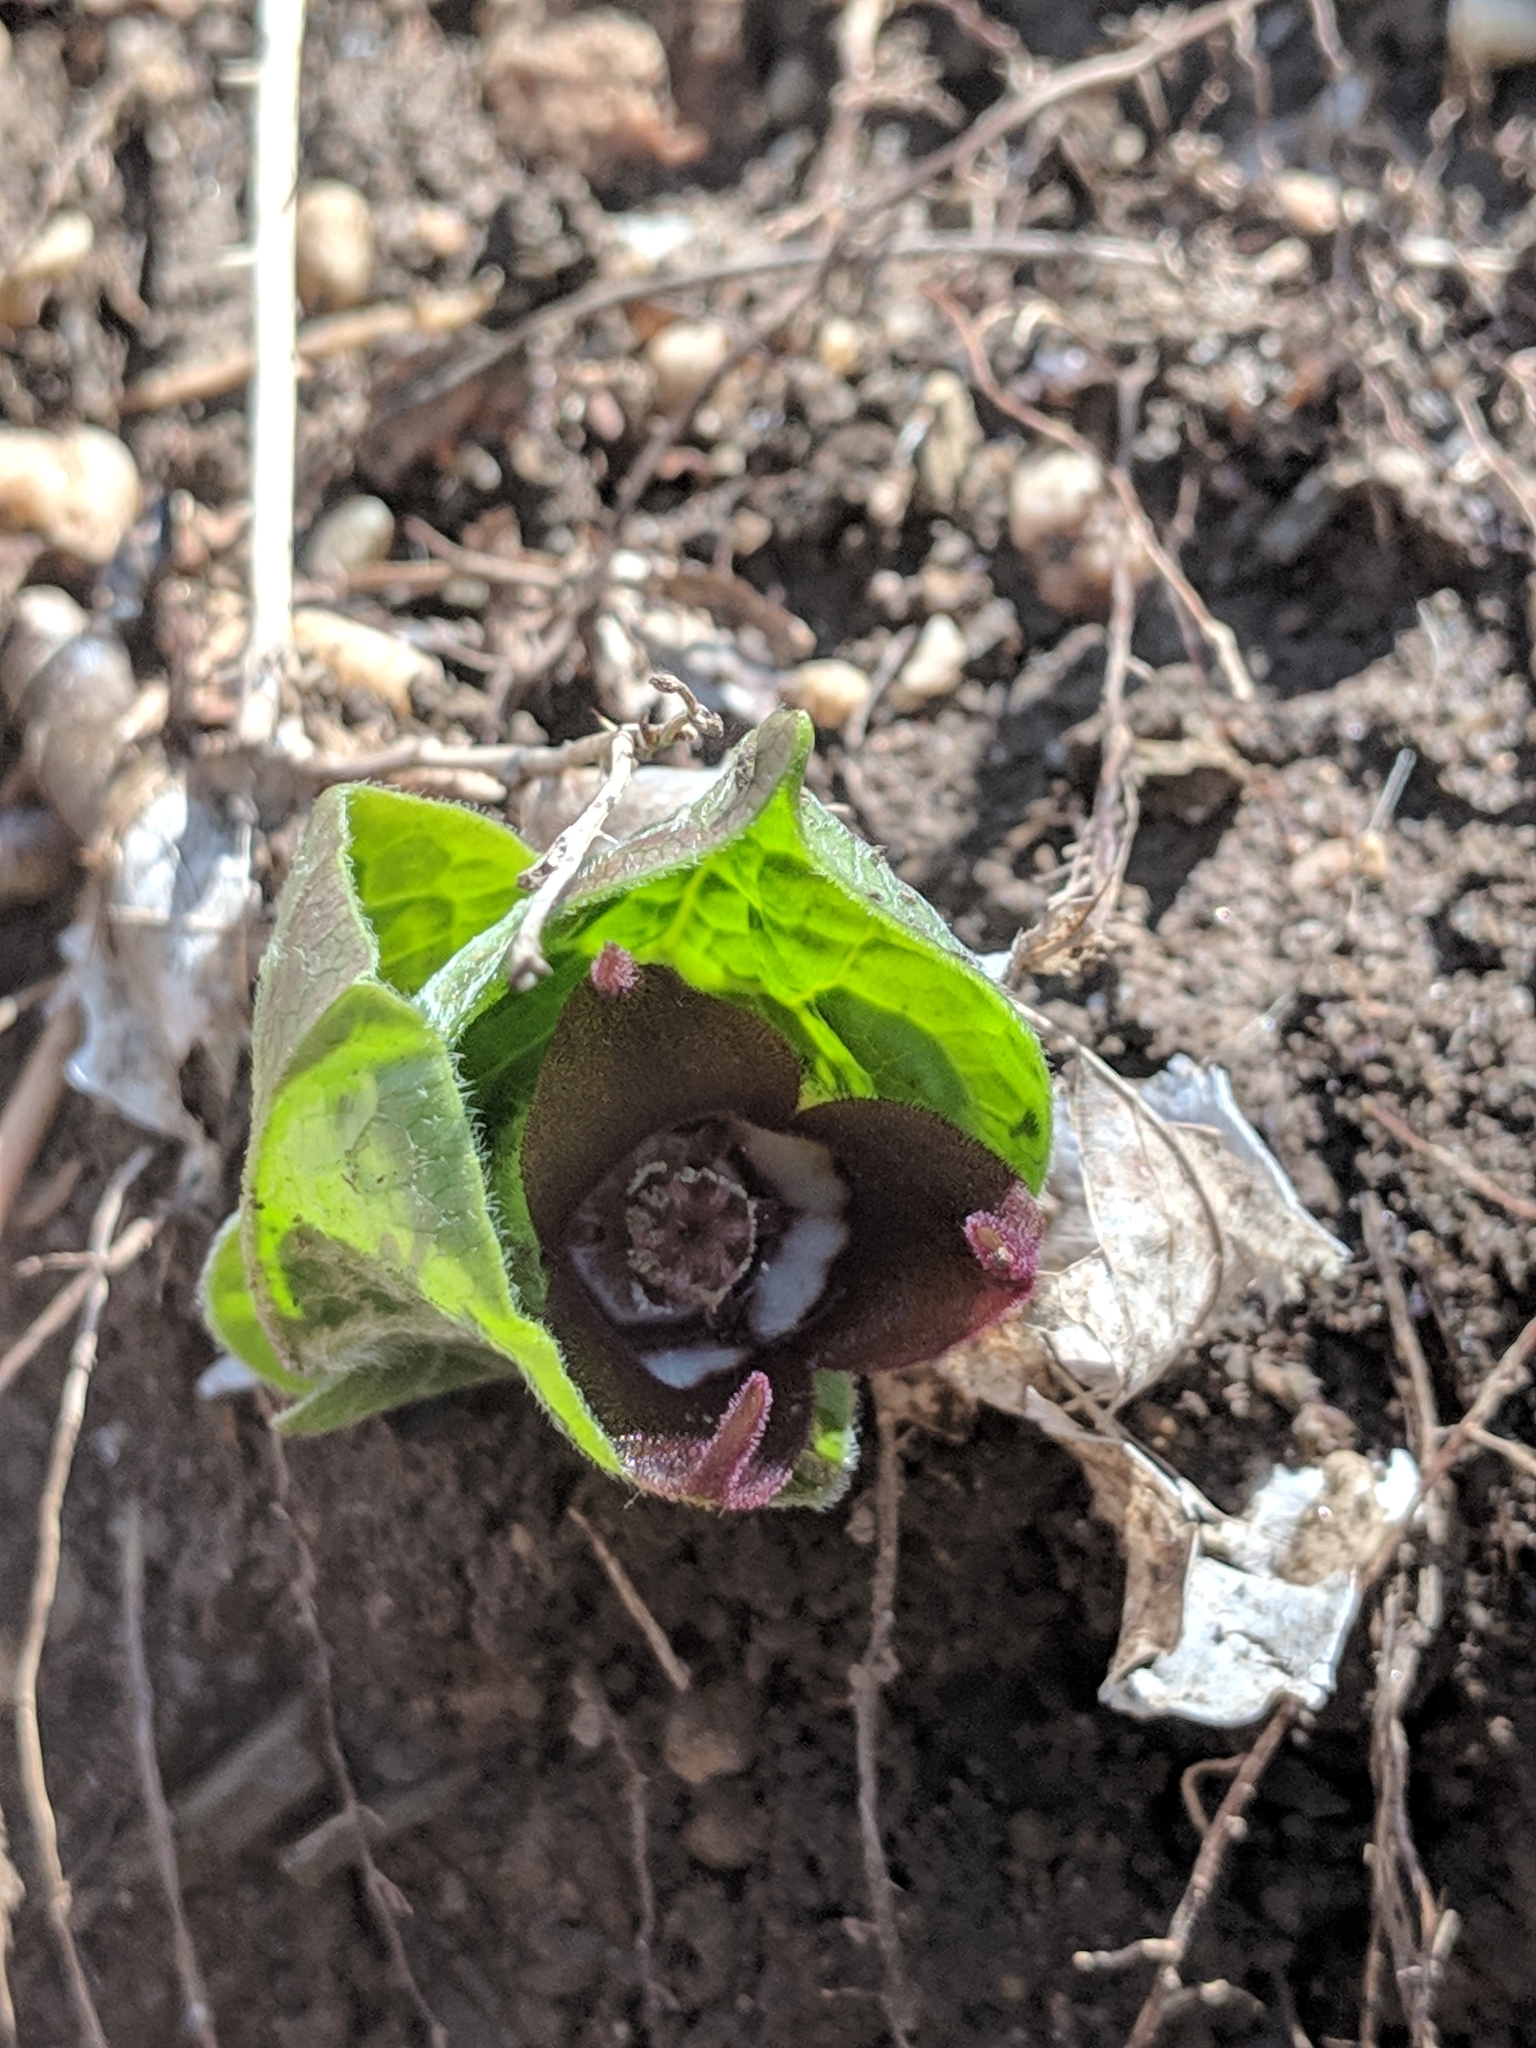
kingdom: Plantae
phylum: Tracheophyta
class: Magnoliopsida
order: Piperales
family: Aristolochiaceae
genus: Asarum
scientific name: Asarum canadense
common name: Wild ginger
